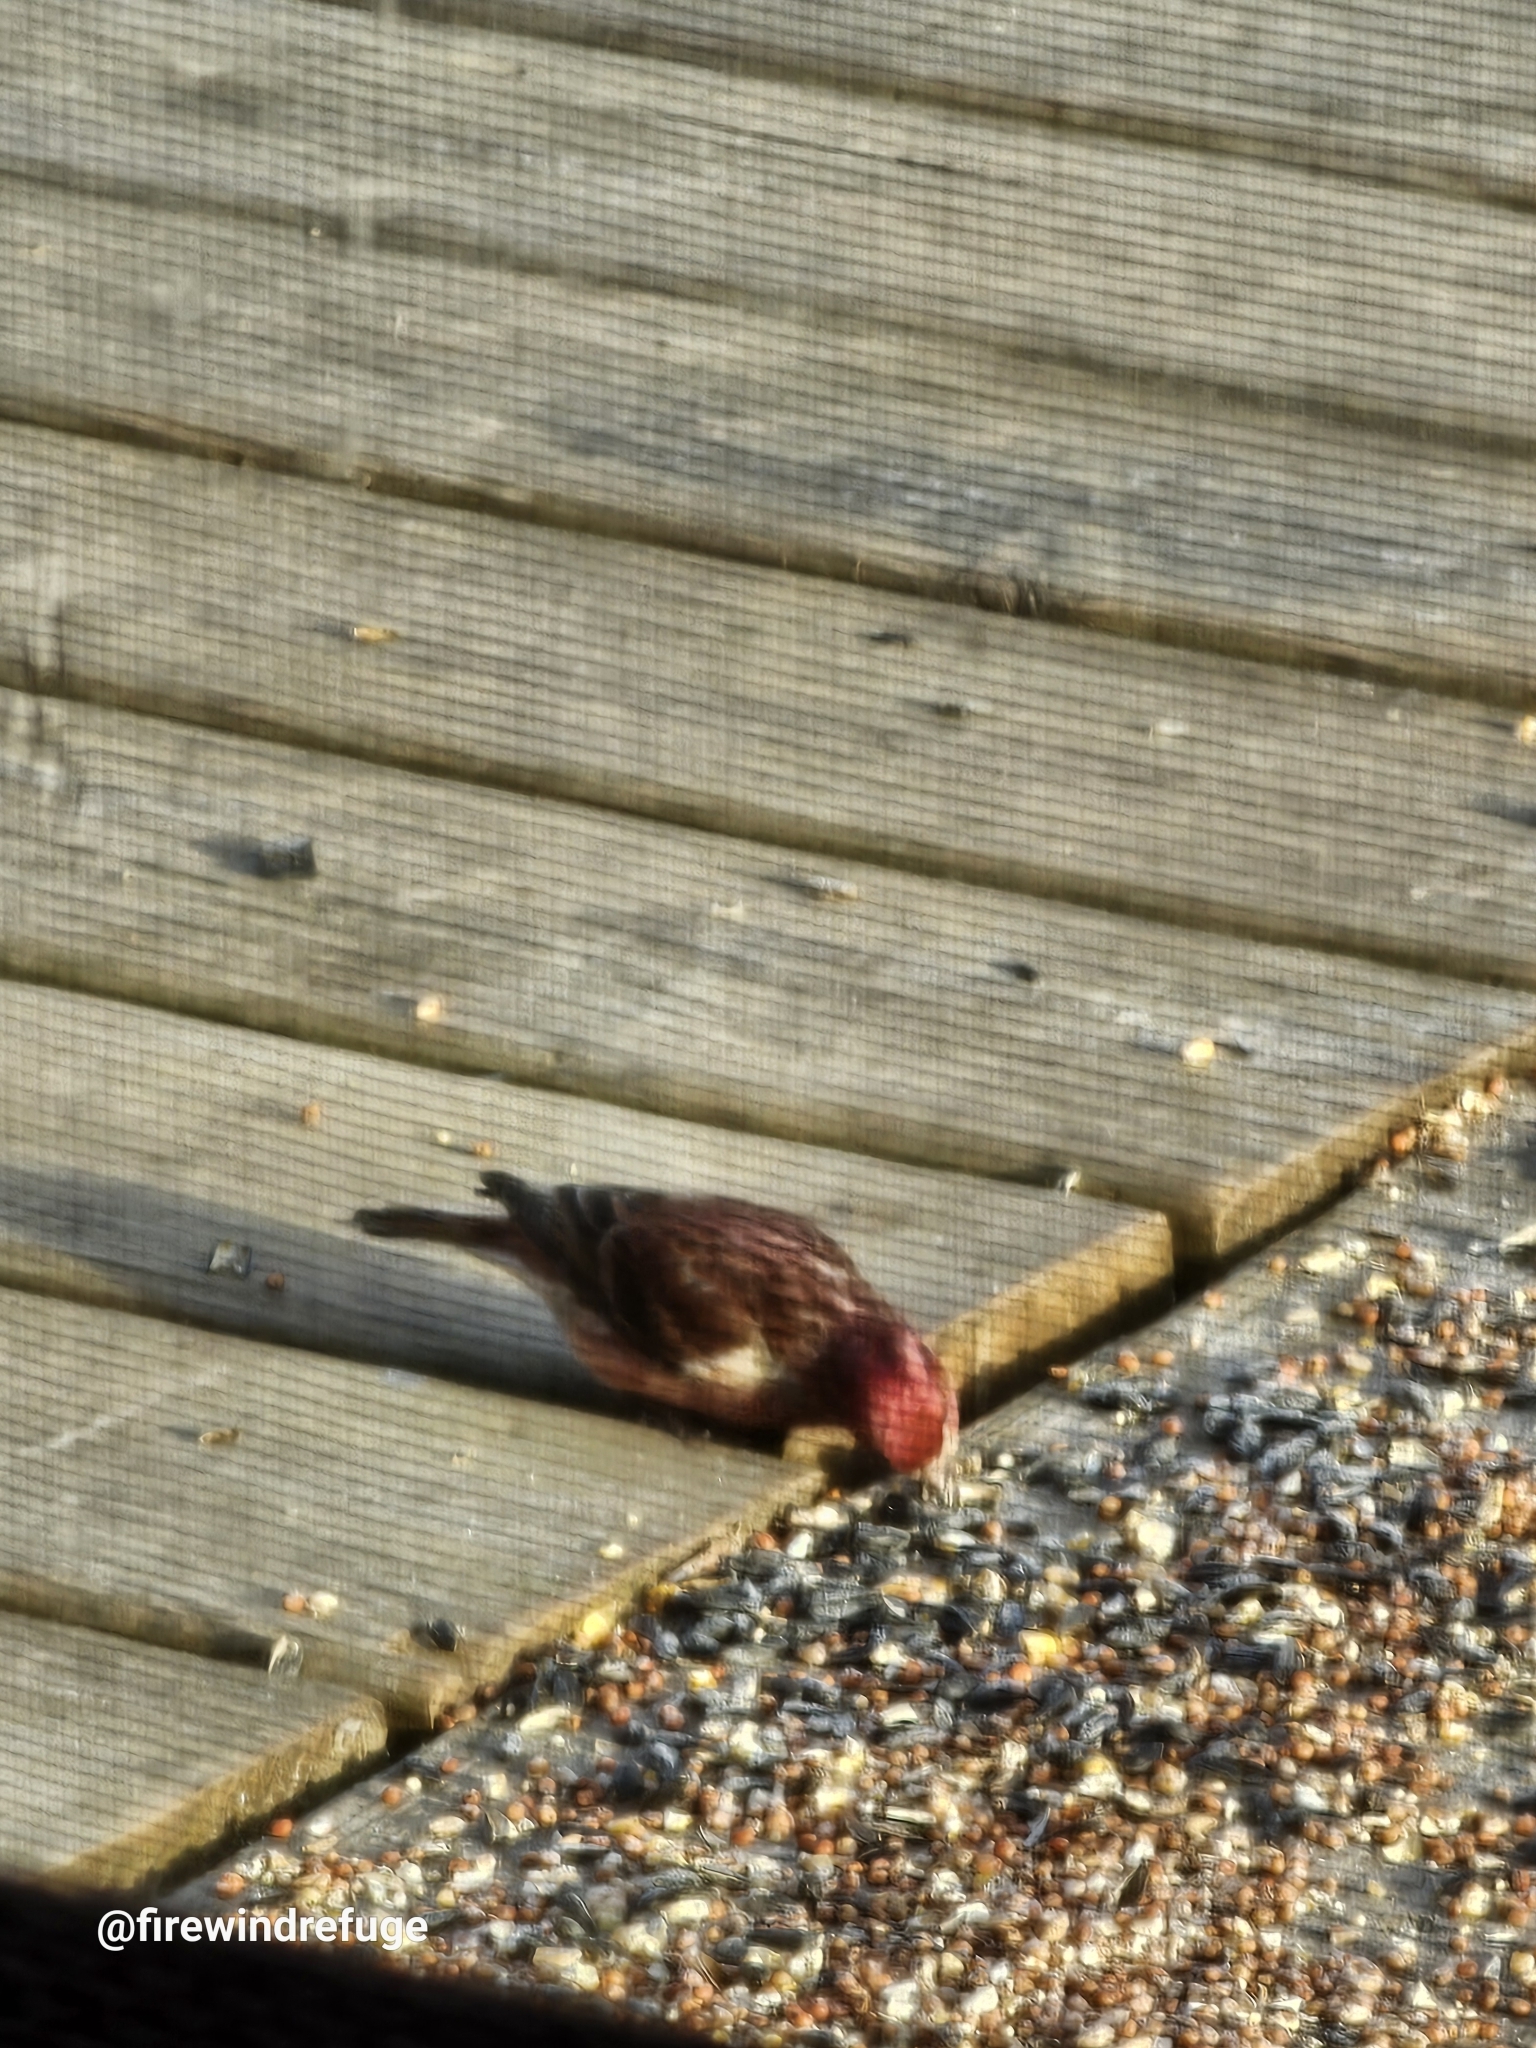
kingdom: Animalia
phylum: Chordata
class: Aves
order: Passeriformes
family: Fringillidae
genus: Haemorhous
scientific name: Haemorhous purpureus
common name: Purple finch
